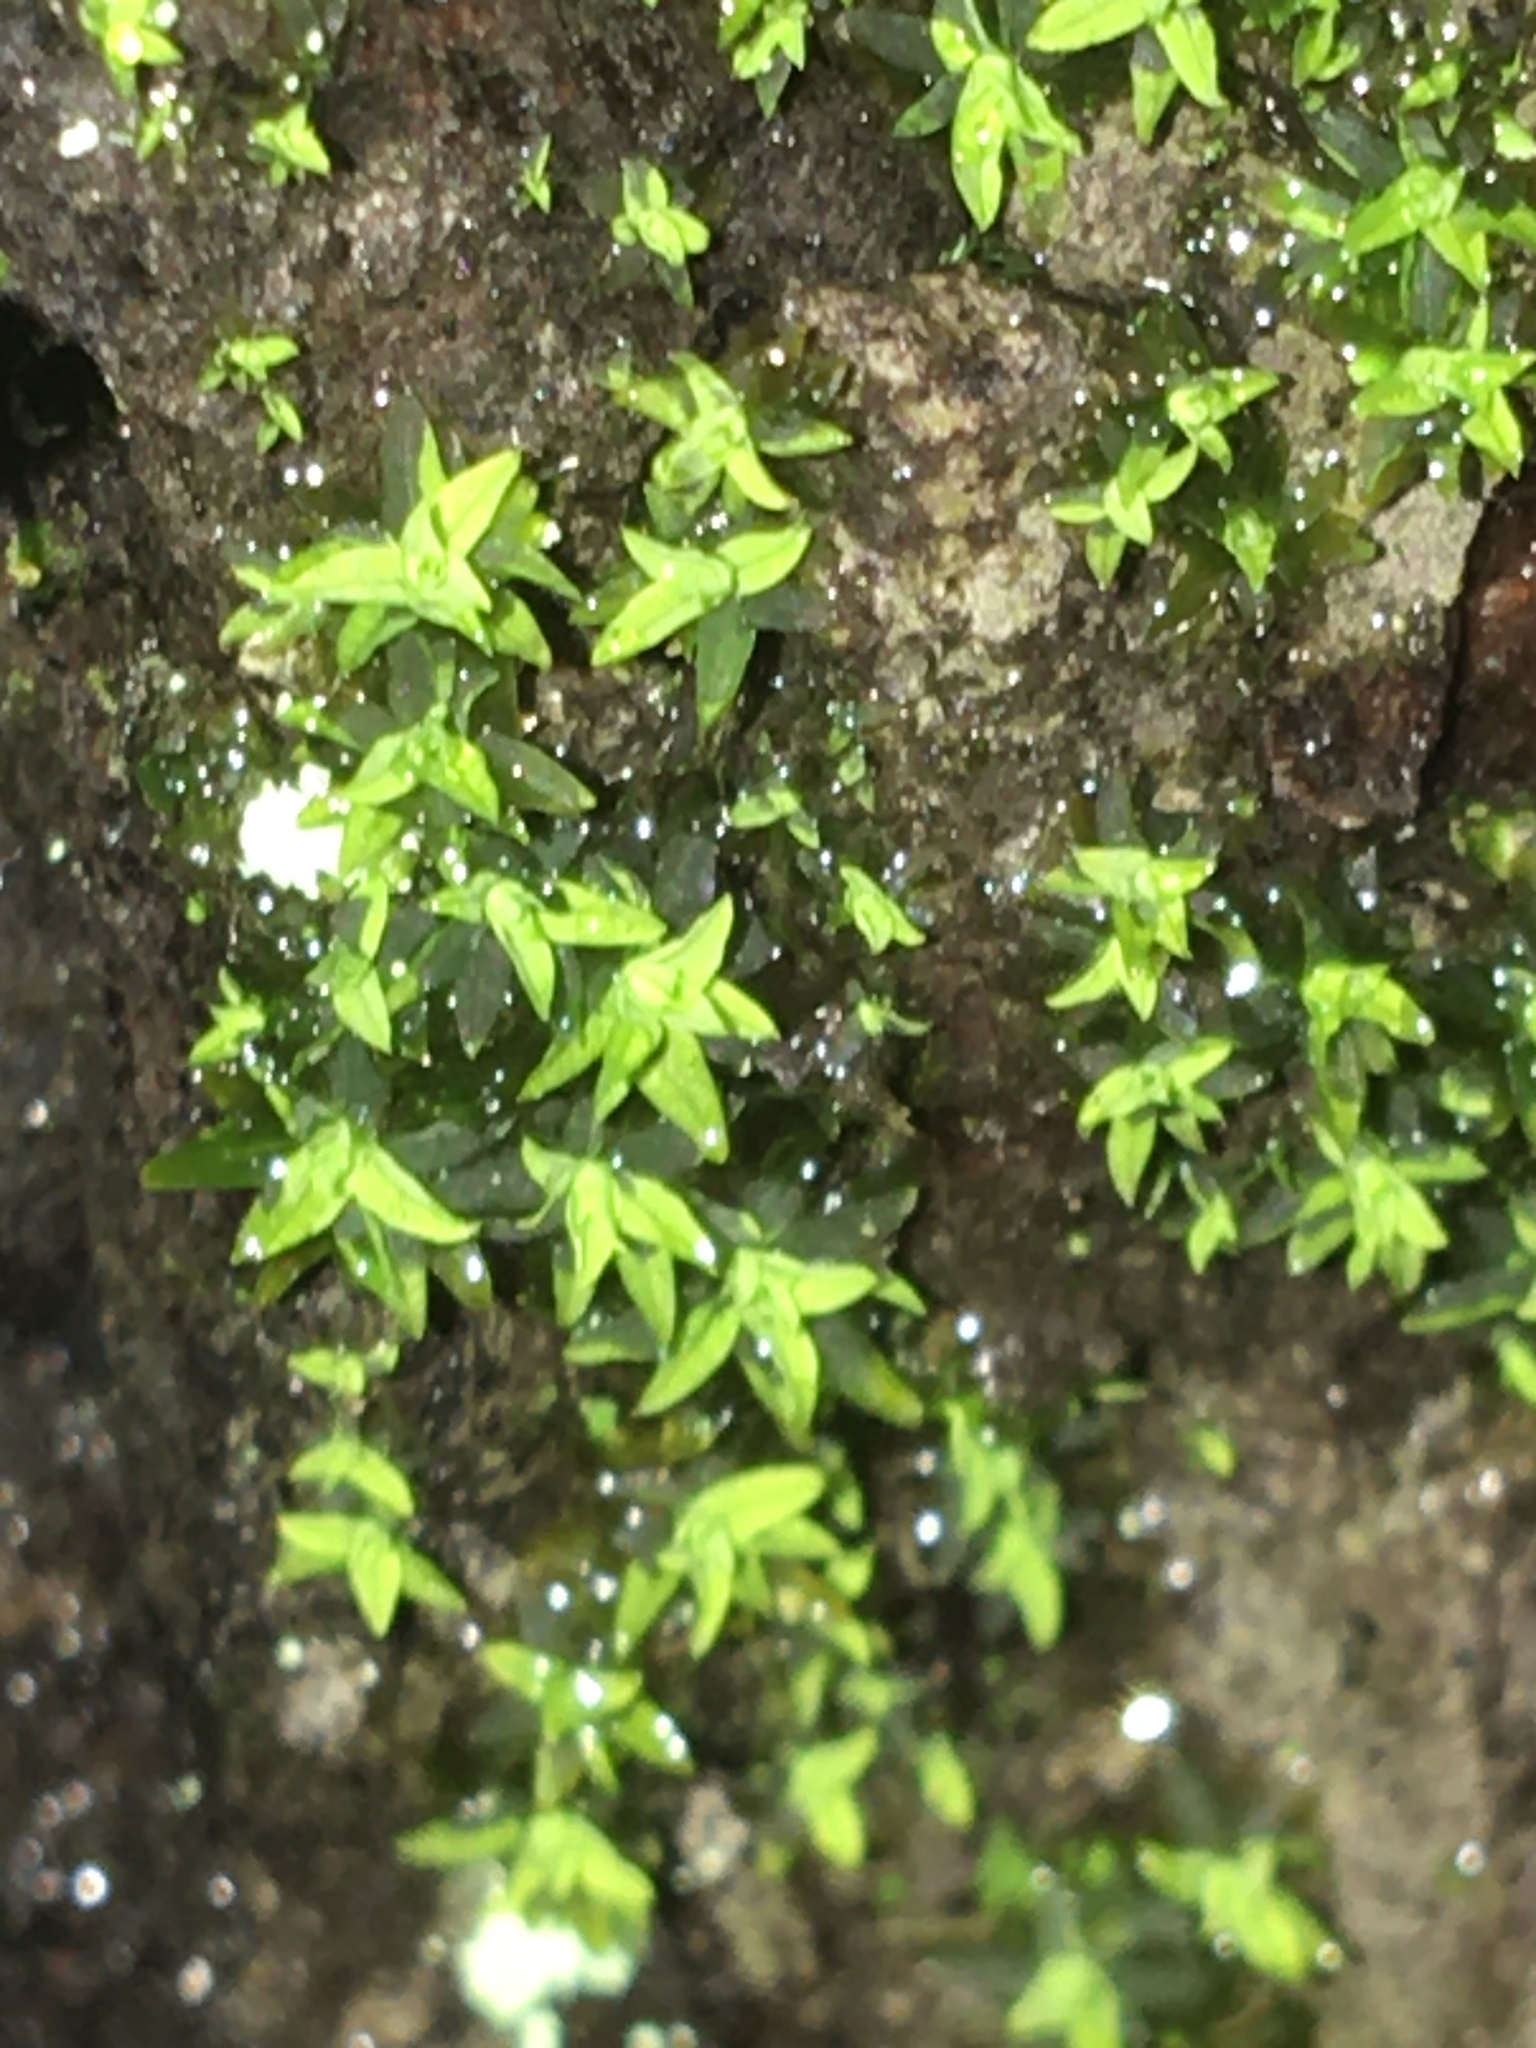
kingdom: Plantae
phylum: Bryophyta
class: Bryopsida
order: Pottiales
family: Pottiaceae
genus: Hyophila
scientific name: Hyophila involuta
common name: Hyophila moss
